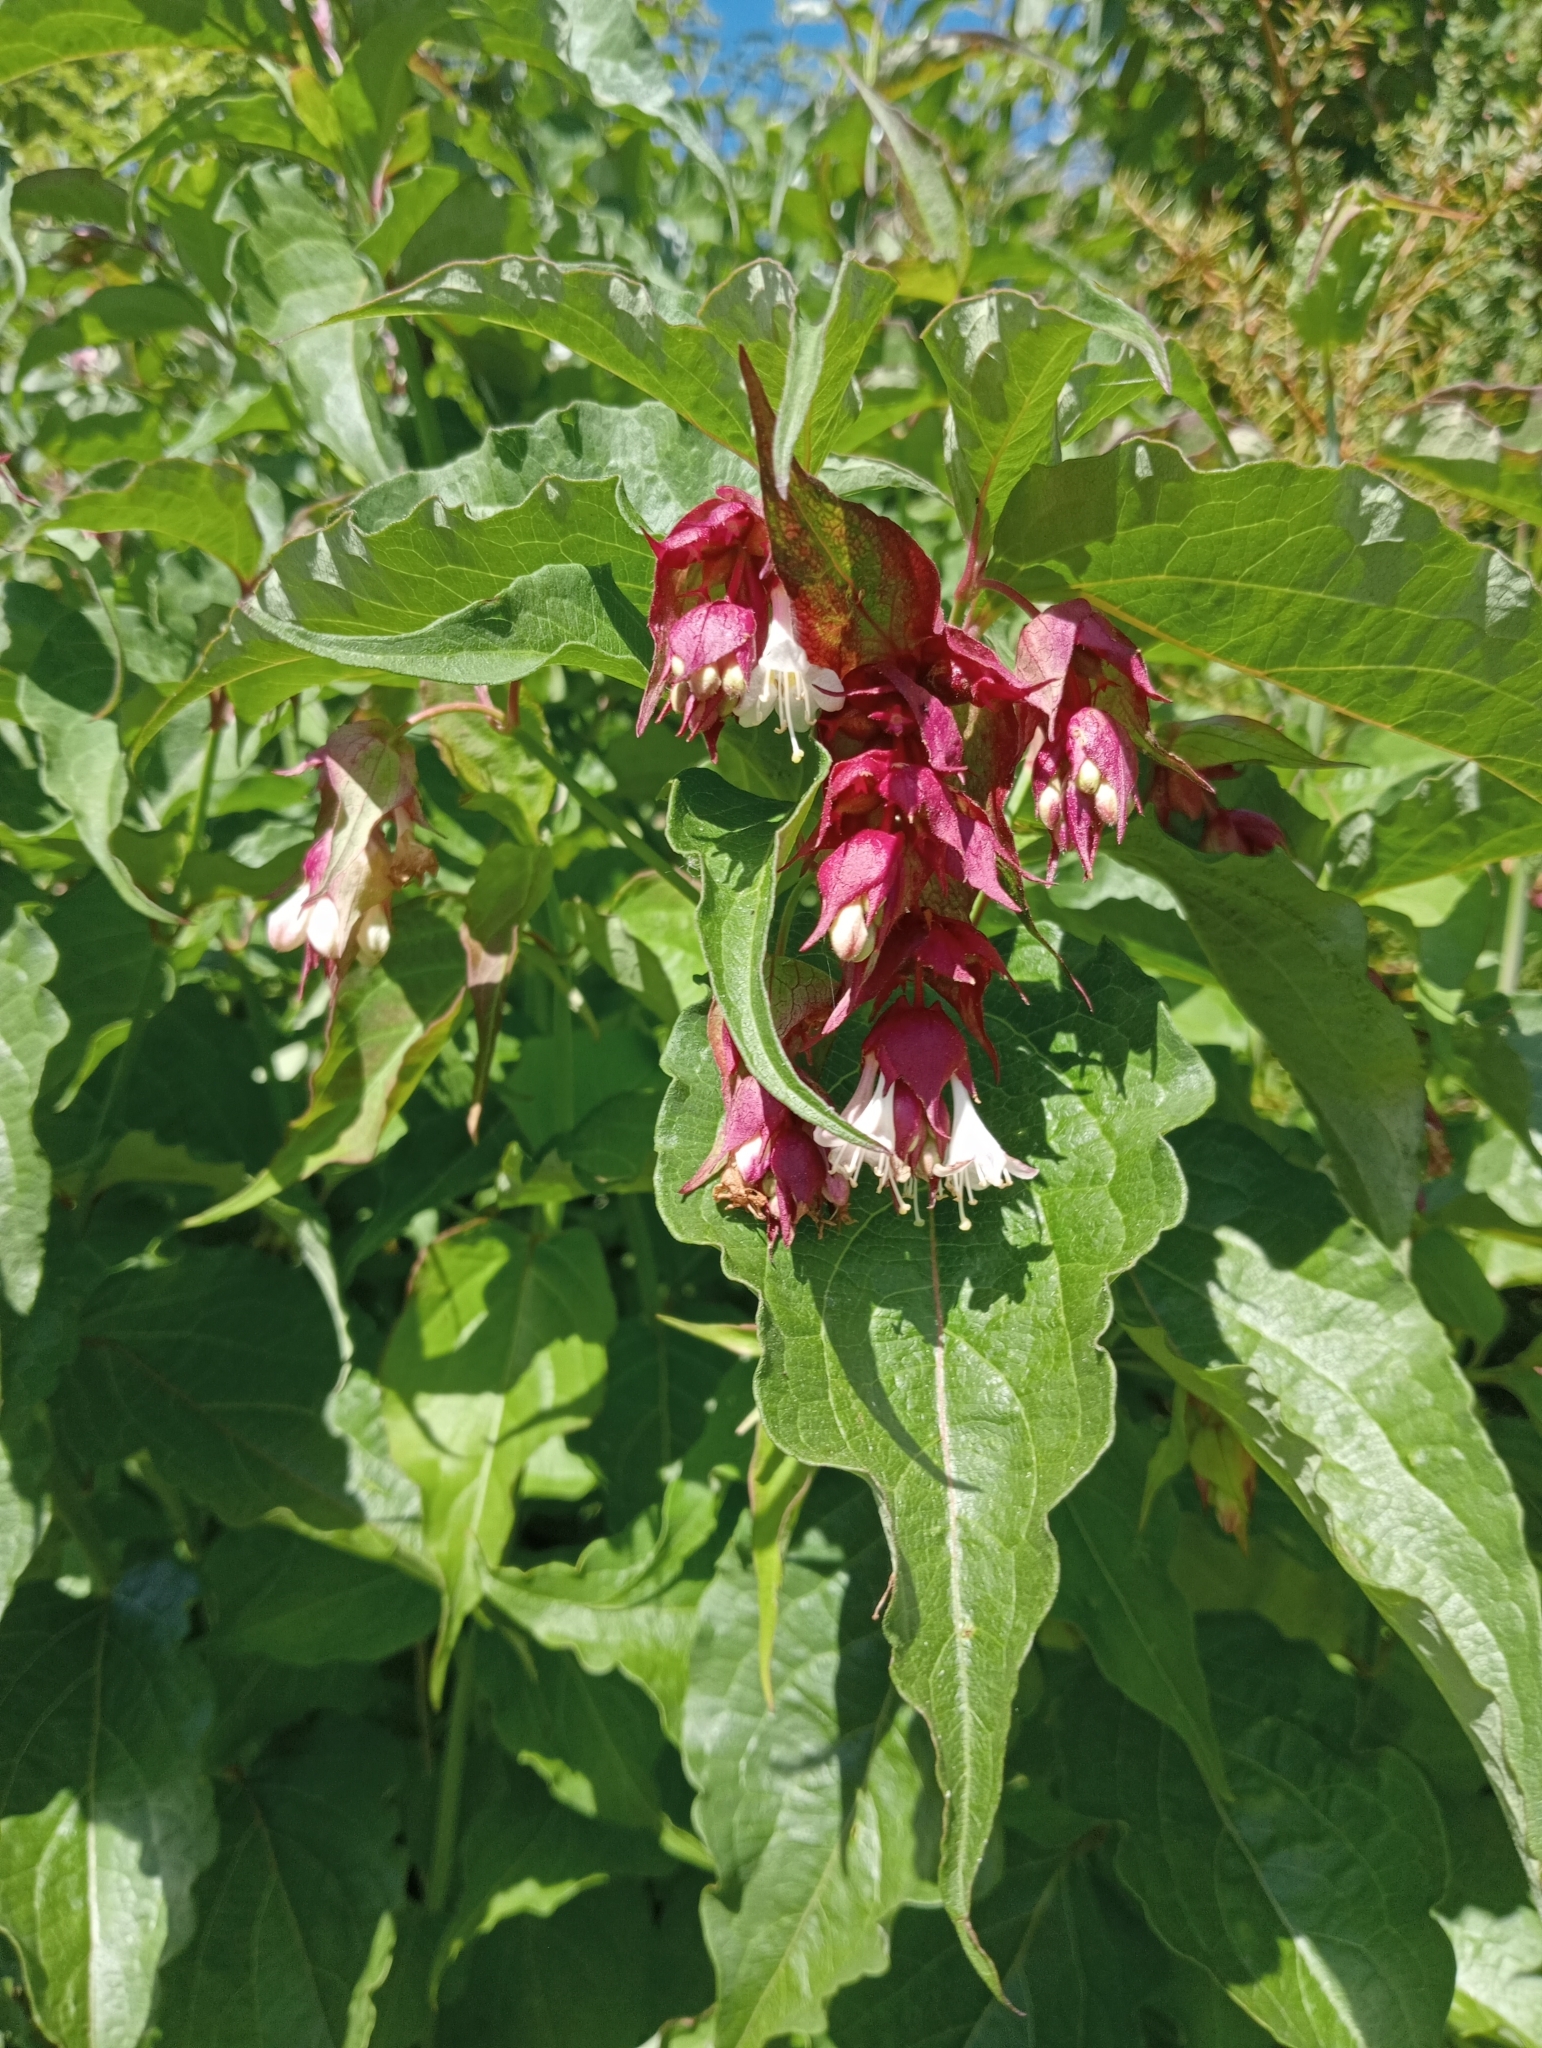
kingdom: Plantae
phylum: Tracheophyta
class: Magnoliopsida
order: Dipsacales
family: Caprifoliaceae
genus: Leycesteria
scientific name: Leycesteria formosa
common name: Himalayan honeysuckle
